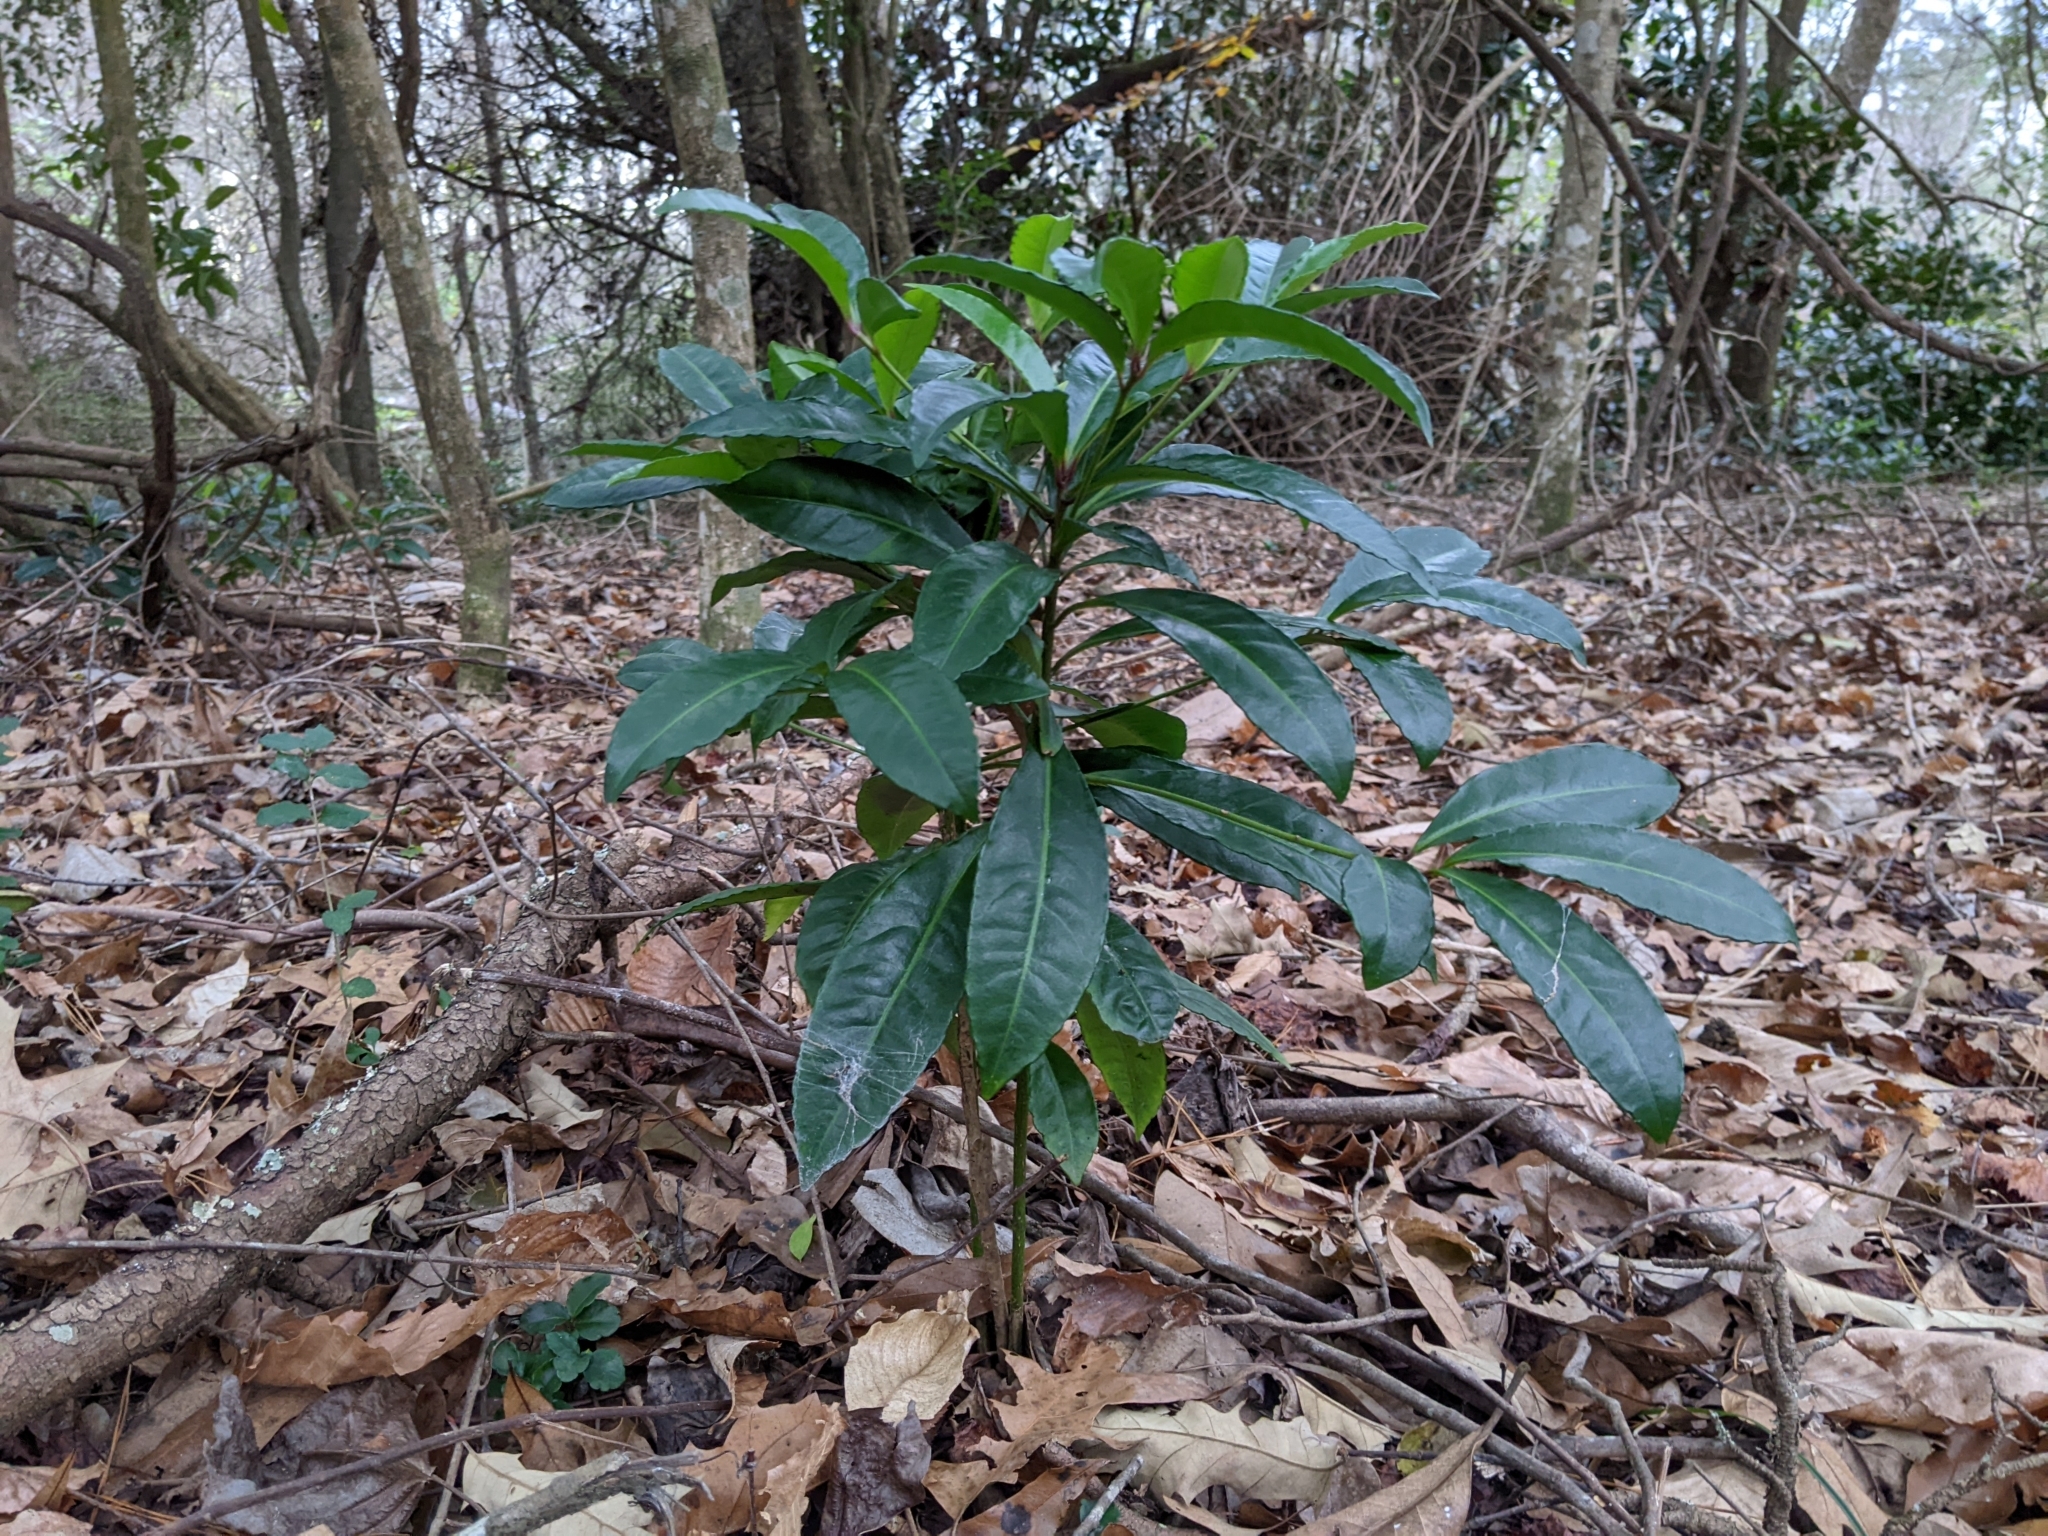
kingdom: Plantae
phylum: Tracheophyta
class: Magnoliopsida
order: Ericales
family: Primulaceae
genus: Ardisia
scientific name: Ardisia crenata
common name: Hen's eyes
